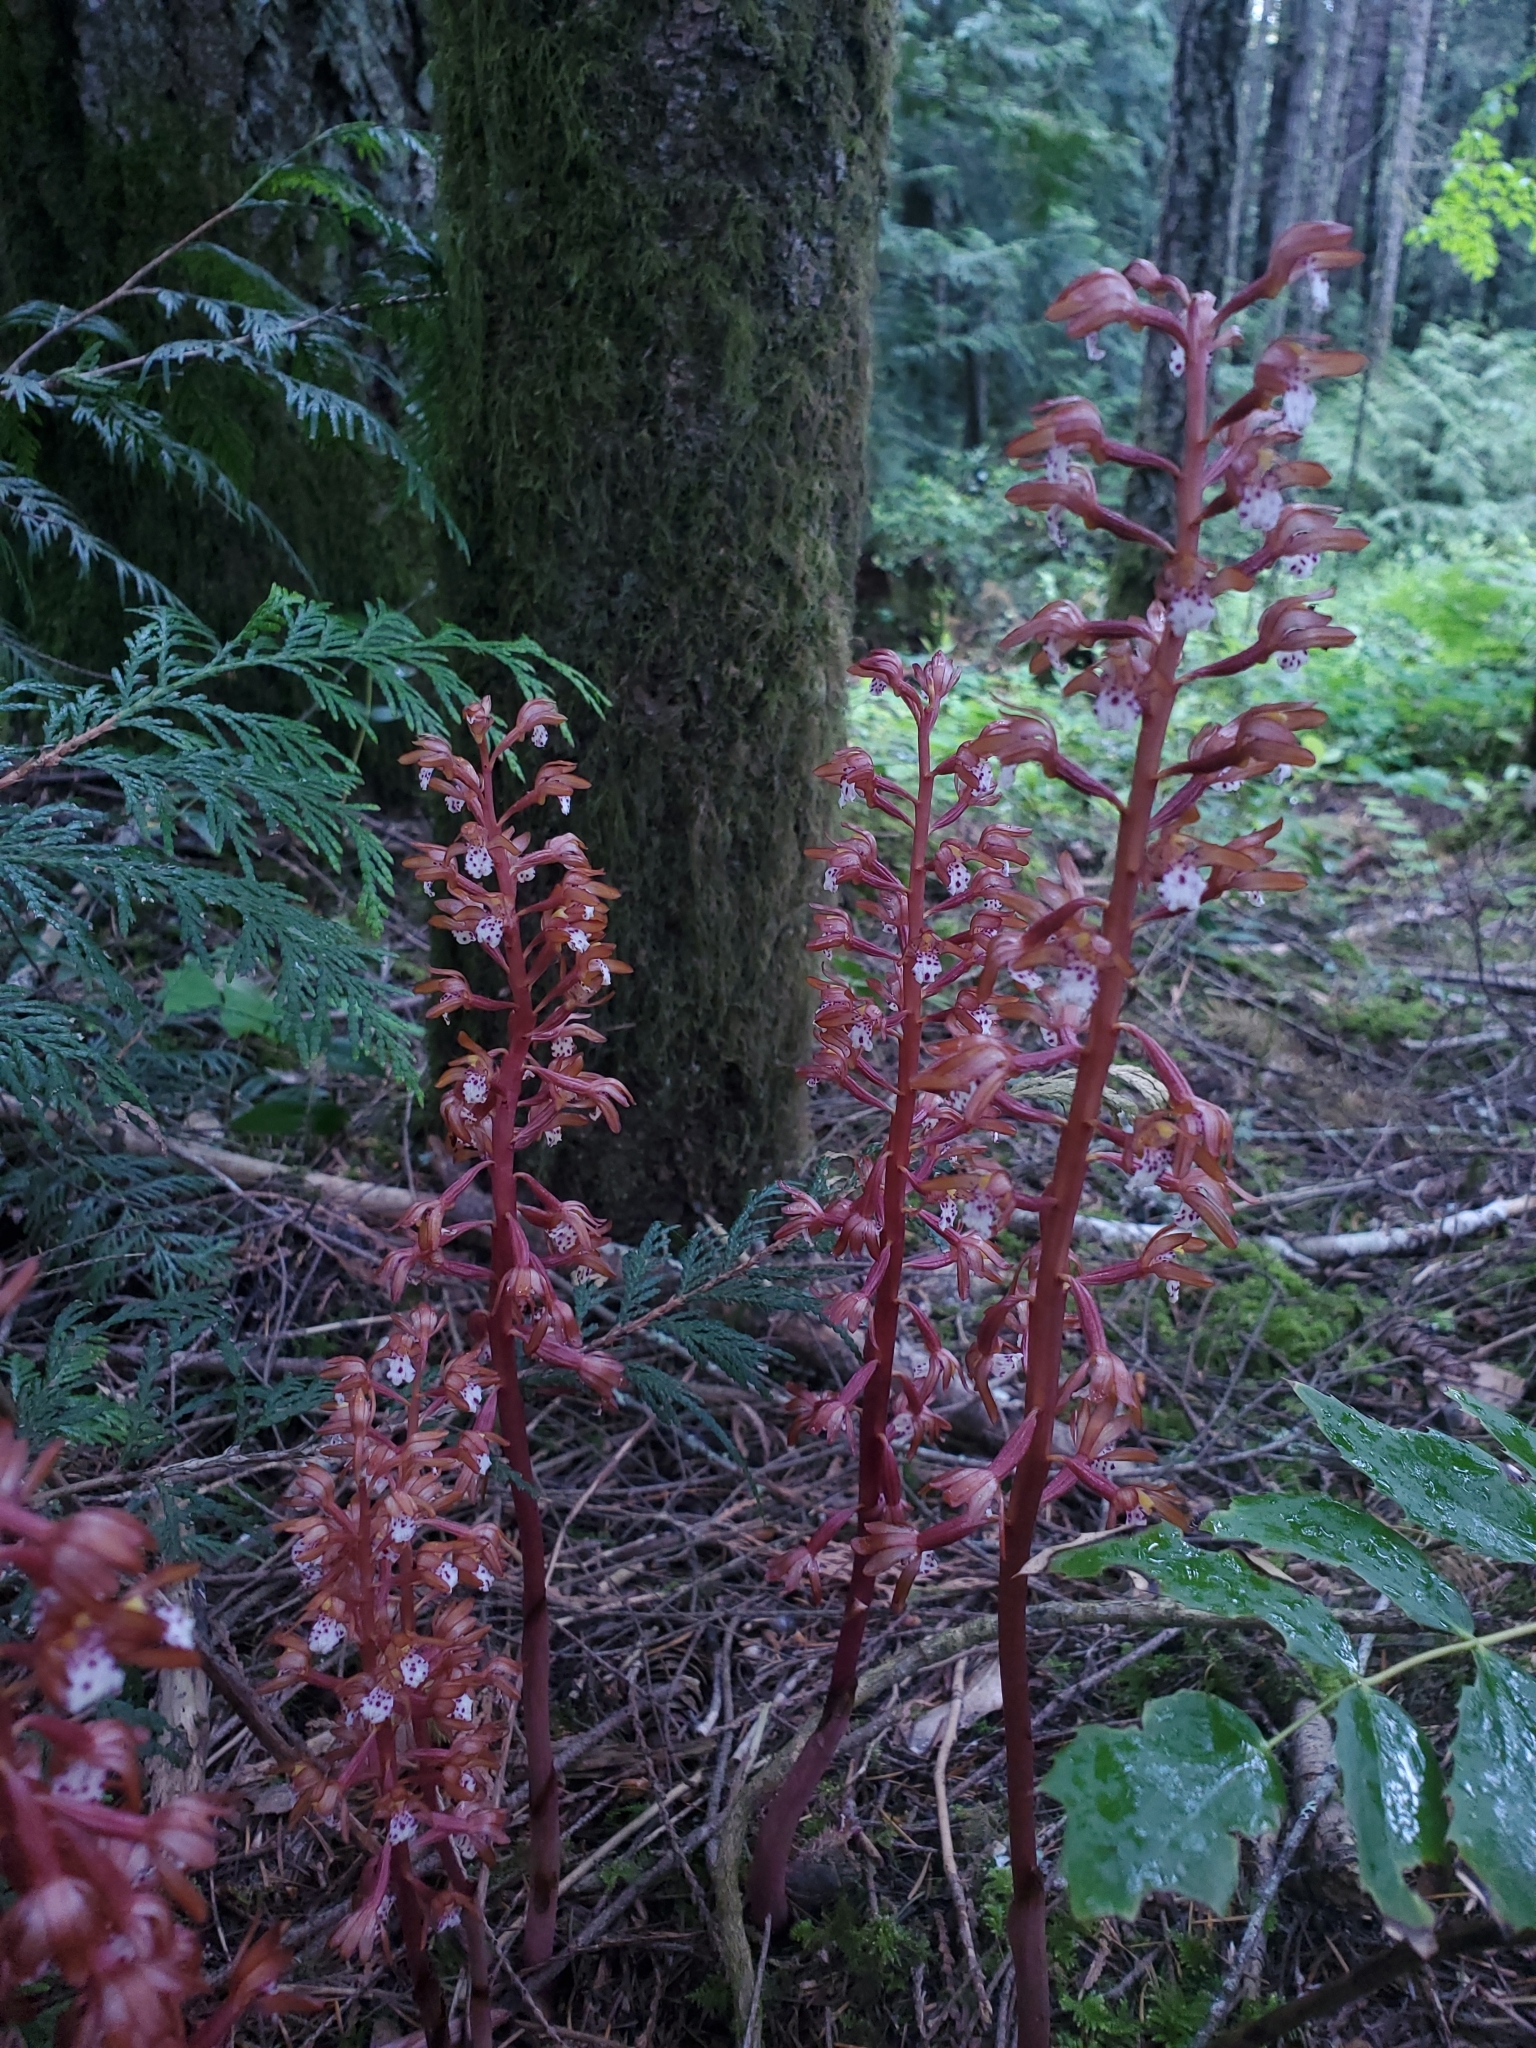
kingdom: Plantae
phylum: Tracheophyta
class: Liliopsida
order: Asparagales
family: Orchidaceae
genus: Corallorhiza
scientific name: Corallorhiza maculata
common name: Spotted coralroot
